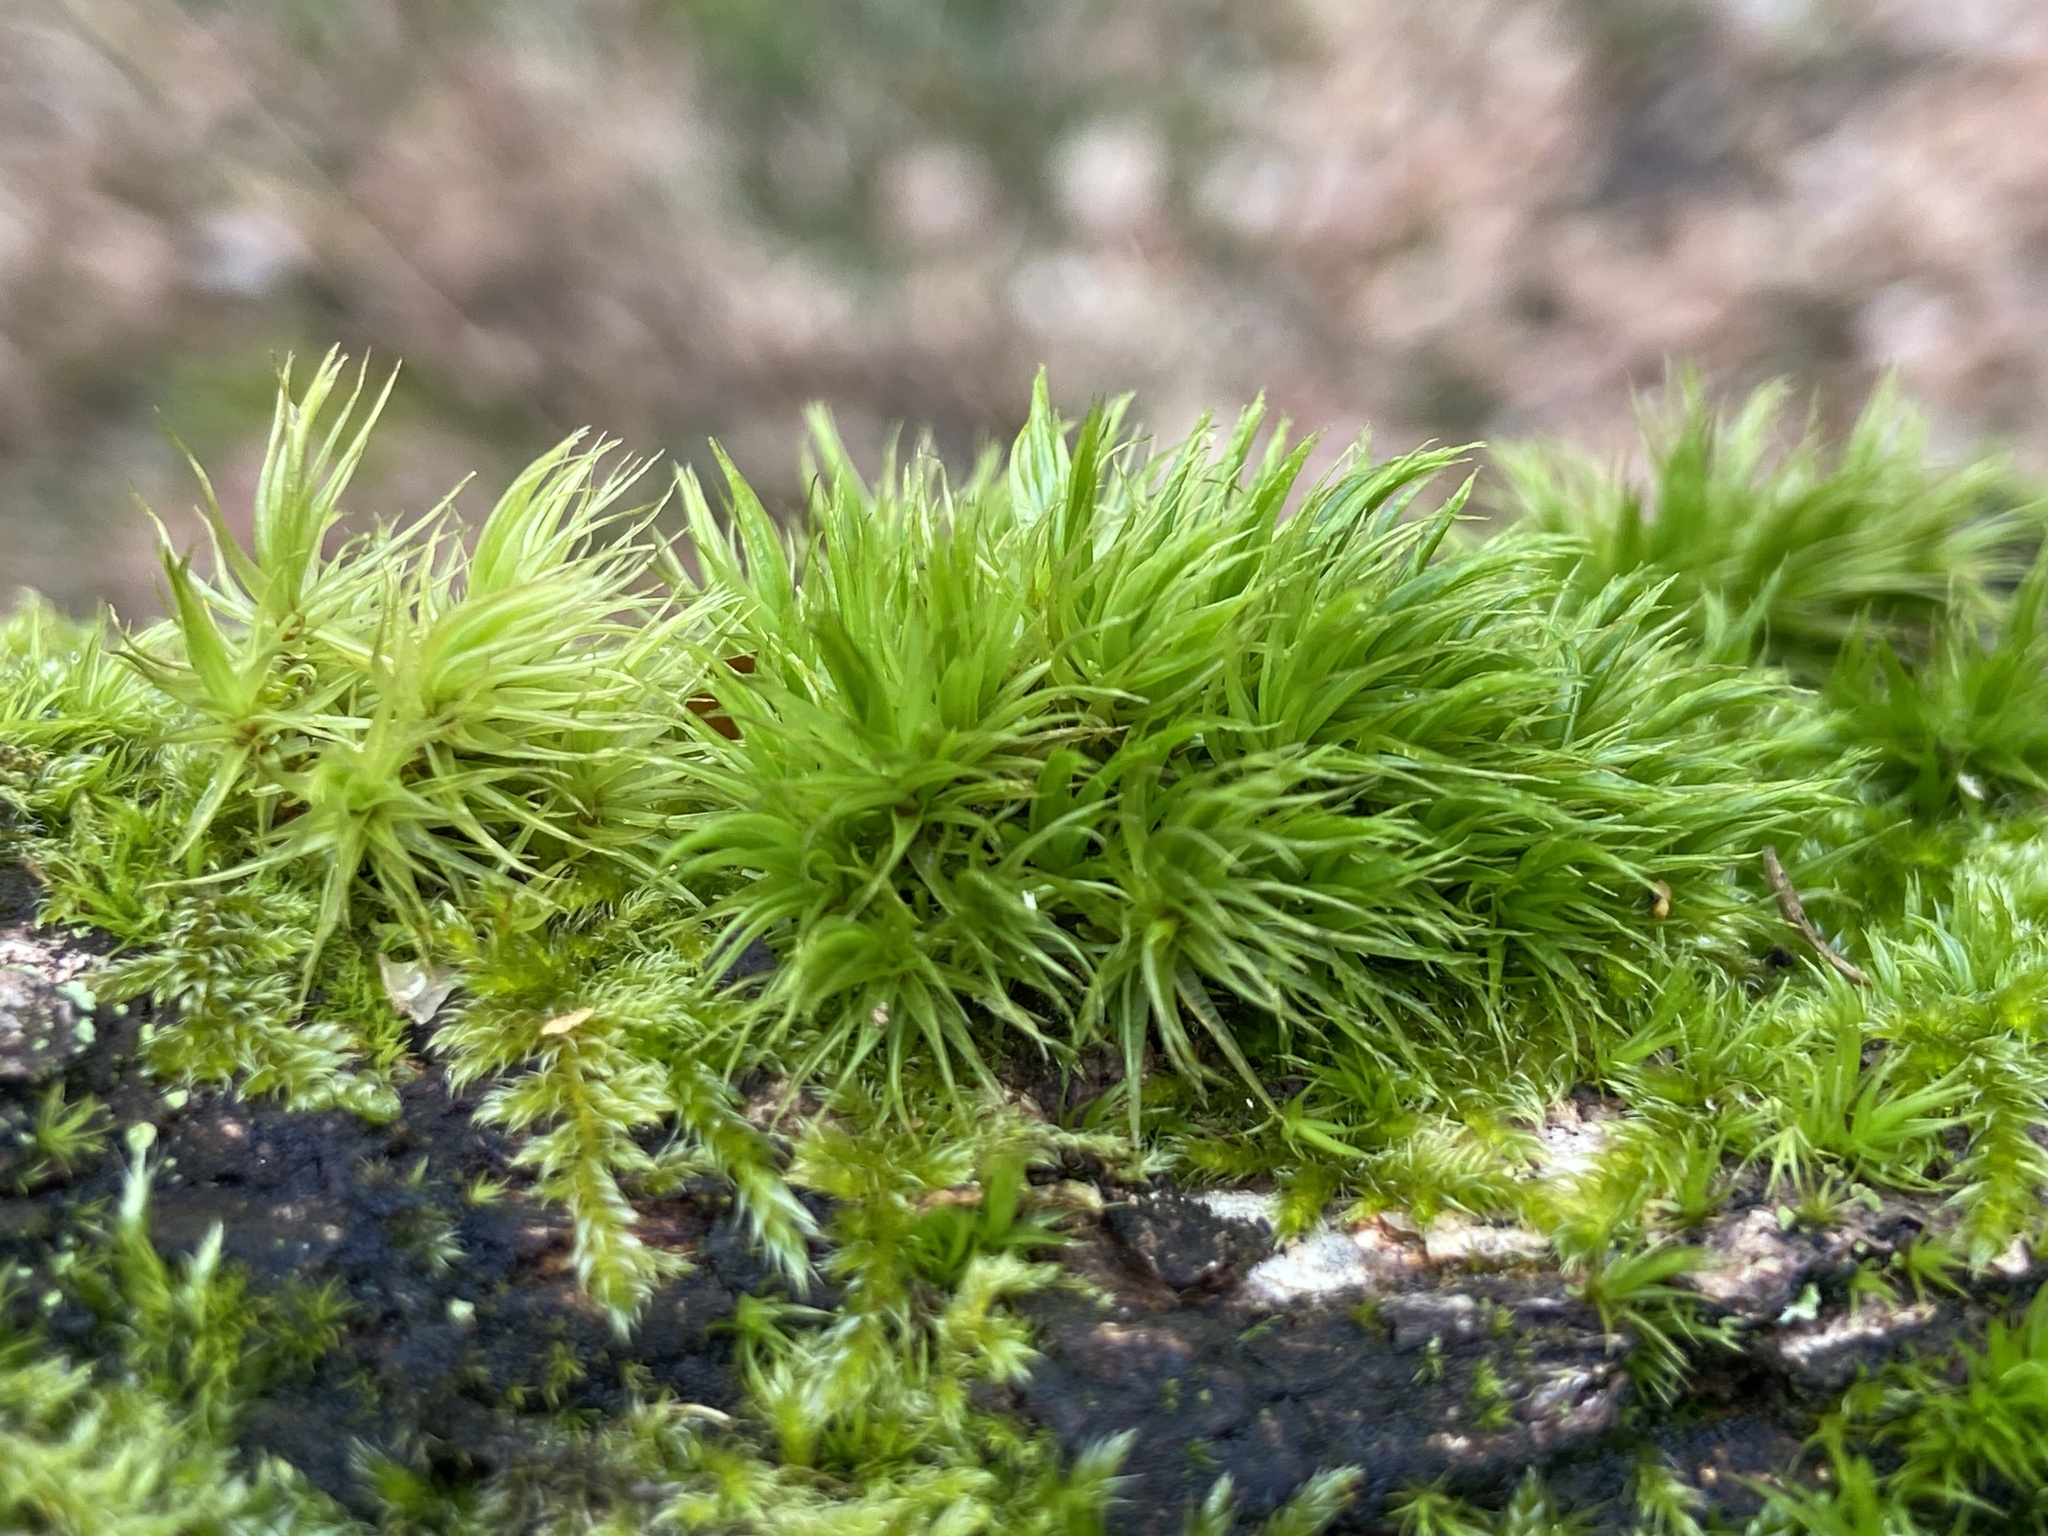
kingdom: Plantae
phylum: Bryophyta
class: Bryopsida
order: Dicranales
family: Dicranaceae
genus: Dicranum
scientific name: Dicranum scoparium
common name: Broom fork-moss
